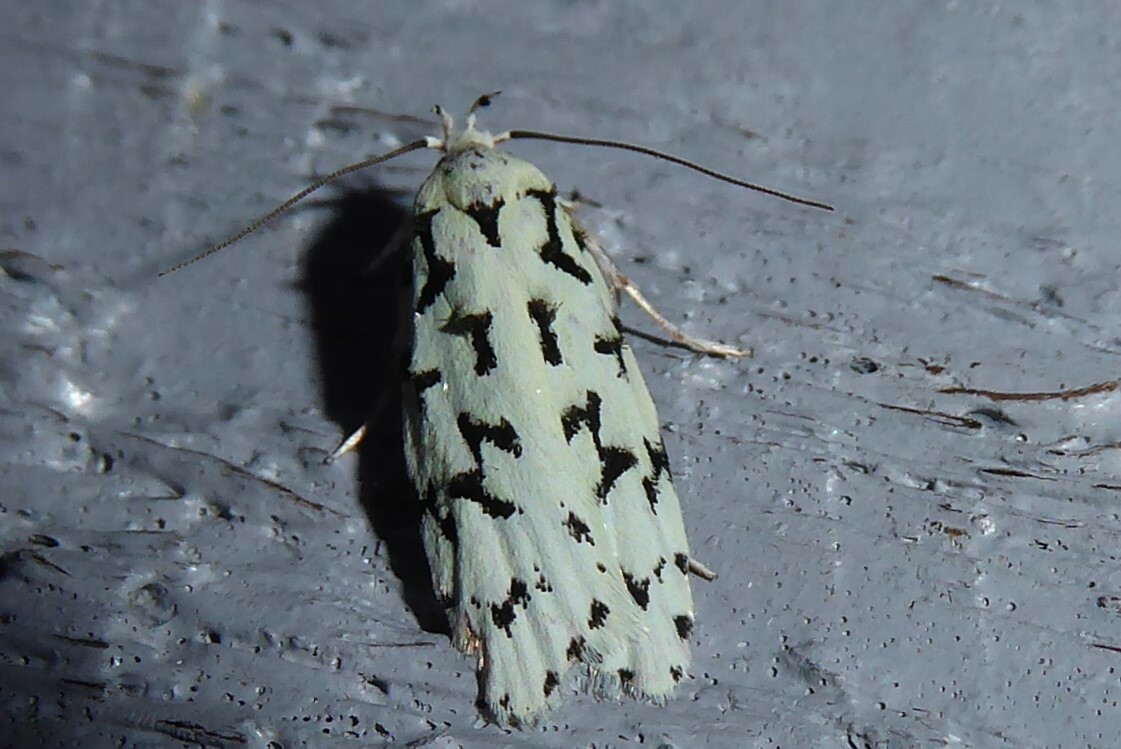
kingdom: Animalia
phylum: Arthropoda
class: Insecta
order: Lepidoptera
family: Oecophoridae
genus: Izatha
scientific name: Izatha huttoni
